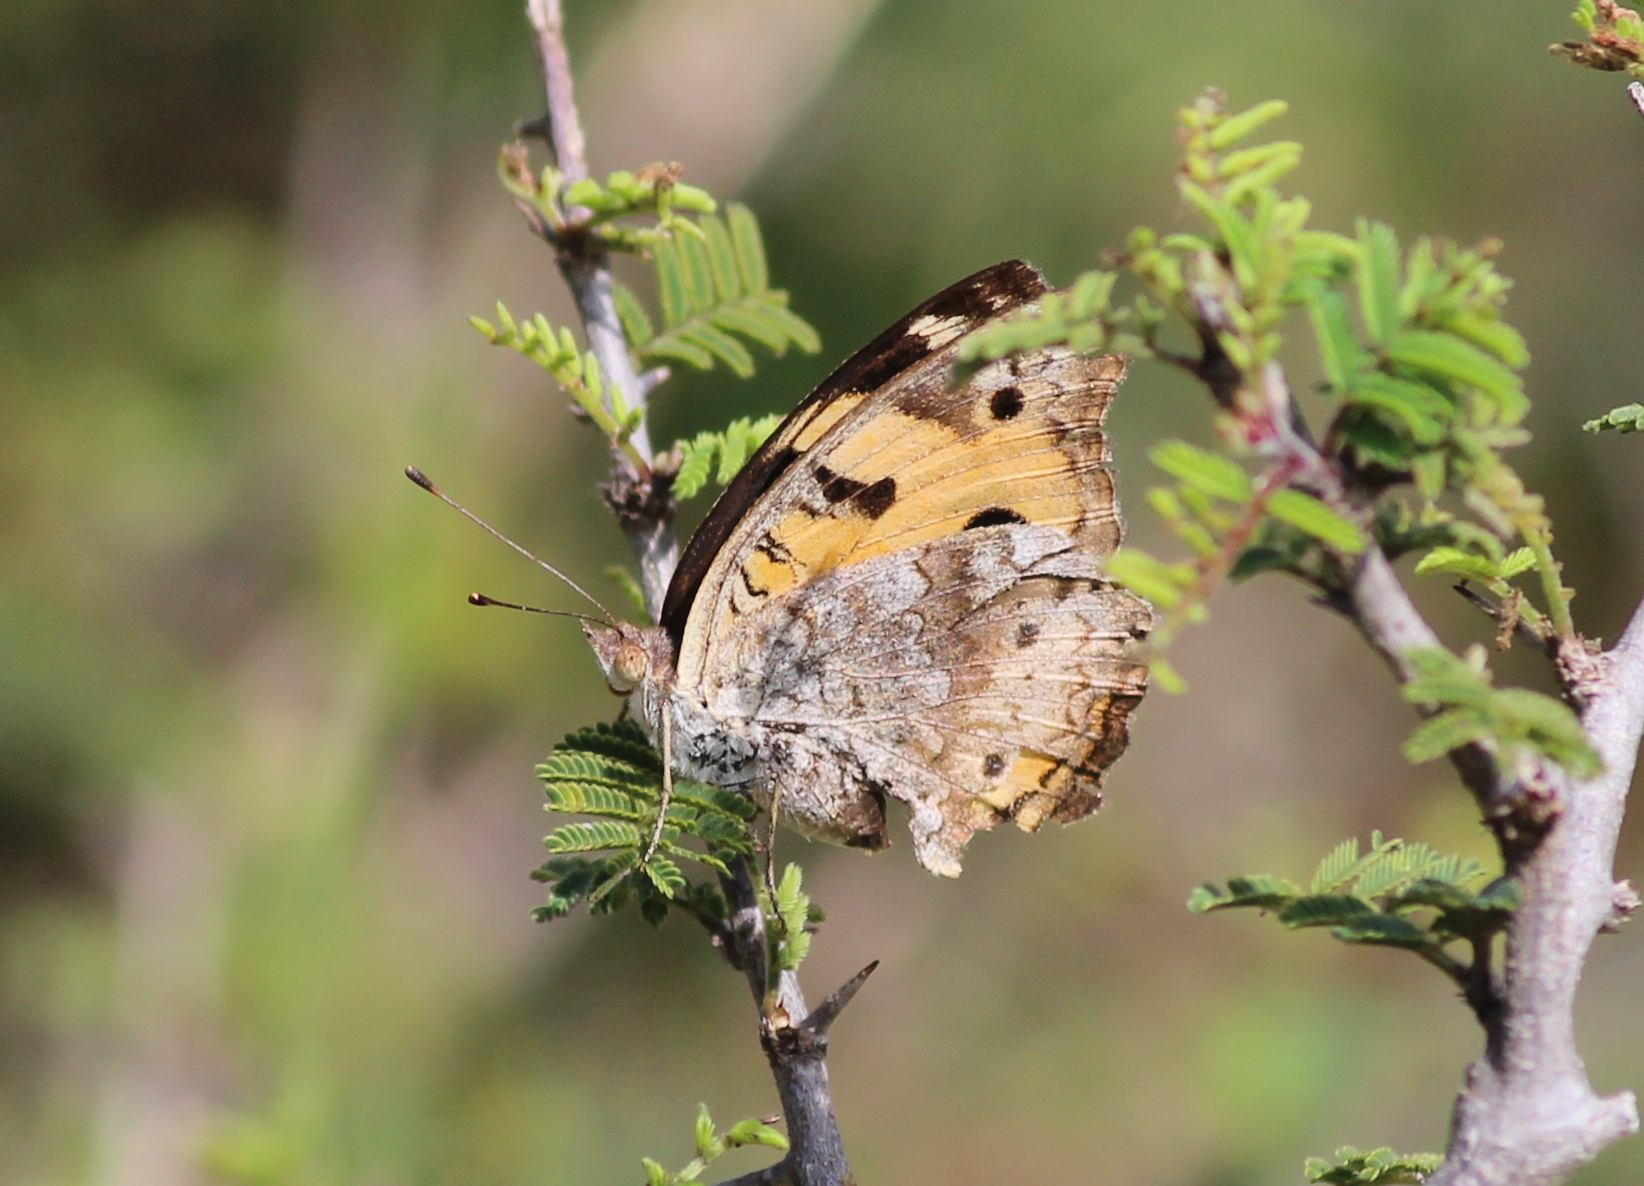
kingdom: Animalia
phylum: Arthropoda
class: Insecta
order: Lepidoptera
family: Nymphalidae
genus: Junonia
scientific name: Junonia hierta
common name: Yellow pansy
